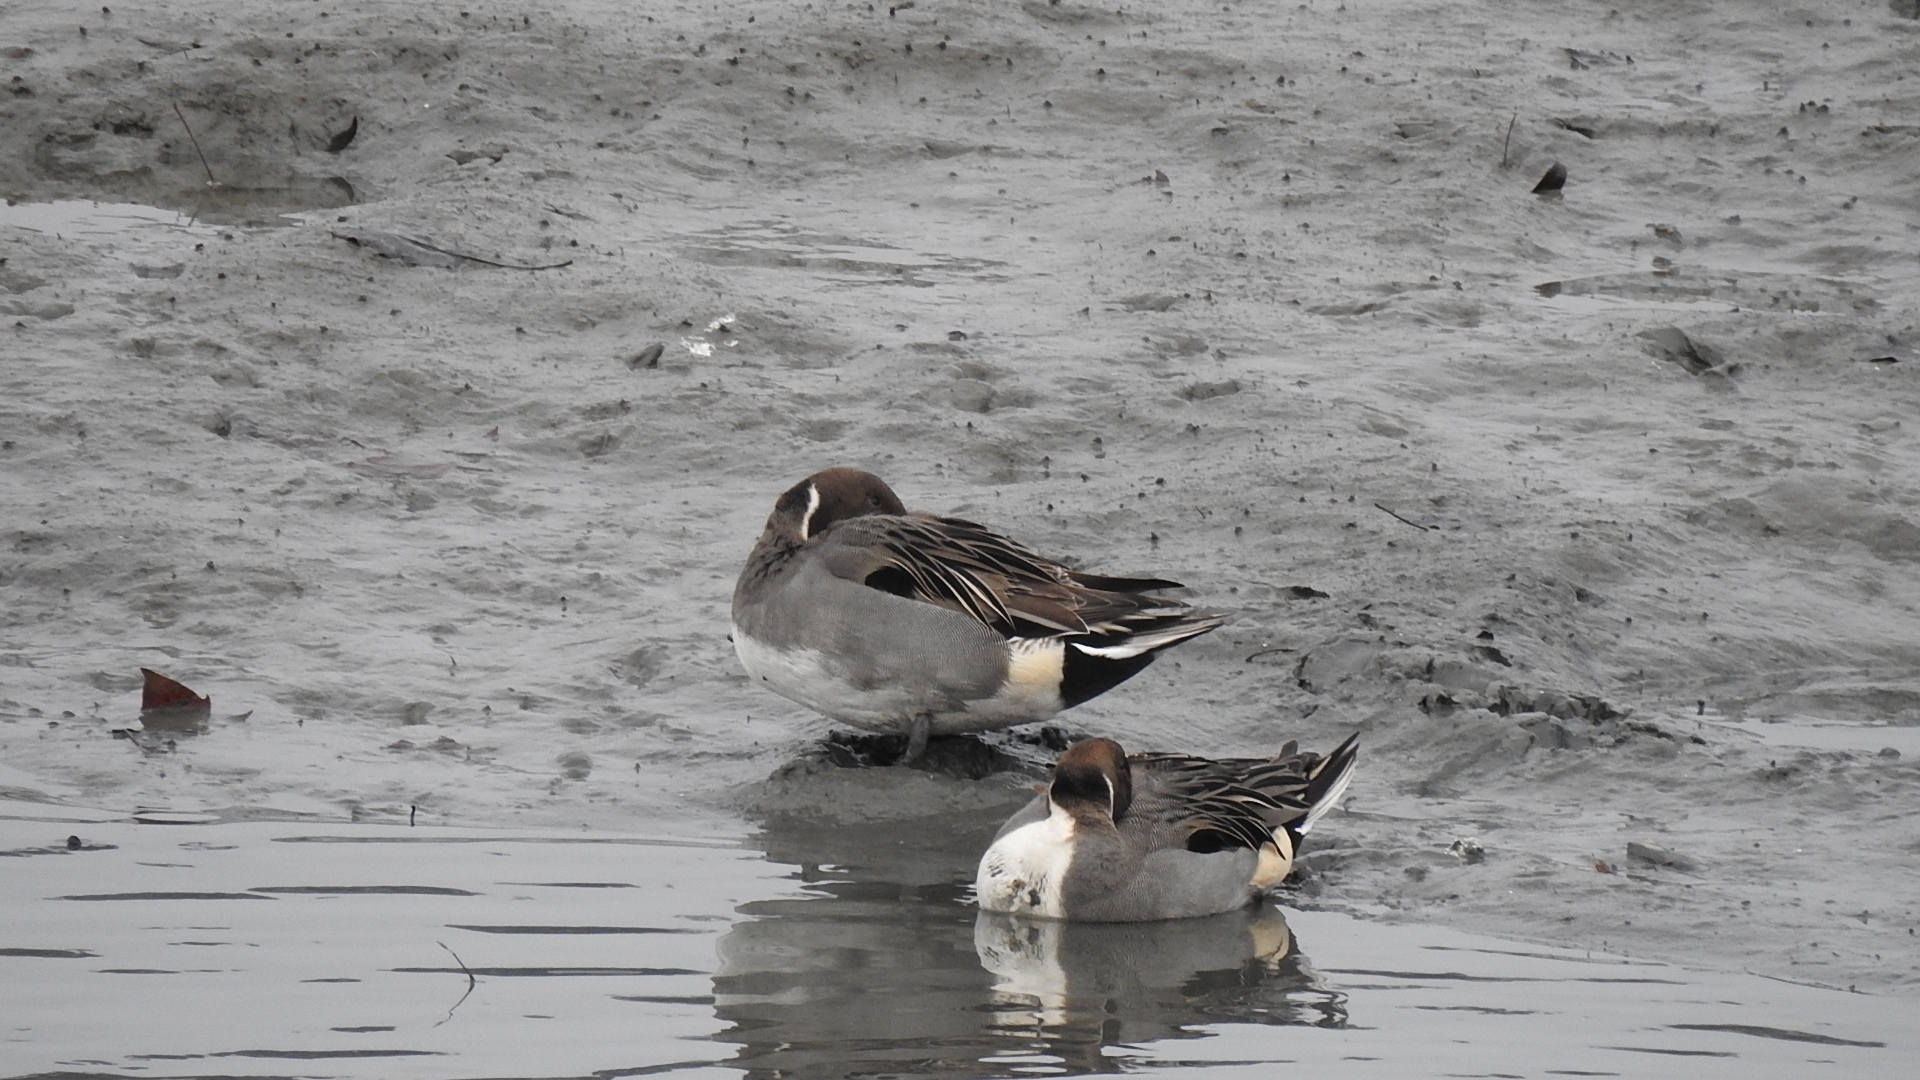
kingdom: Animalia
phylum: Chordata
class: Aves
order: Anseriformes
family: Anatidae
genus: Anas
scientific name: Anas acuta
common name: Northern pintail
